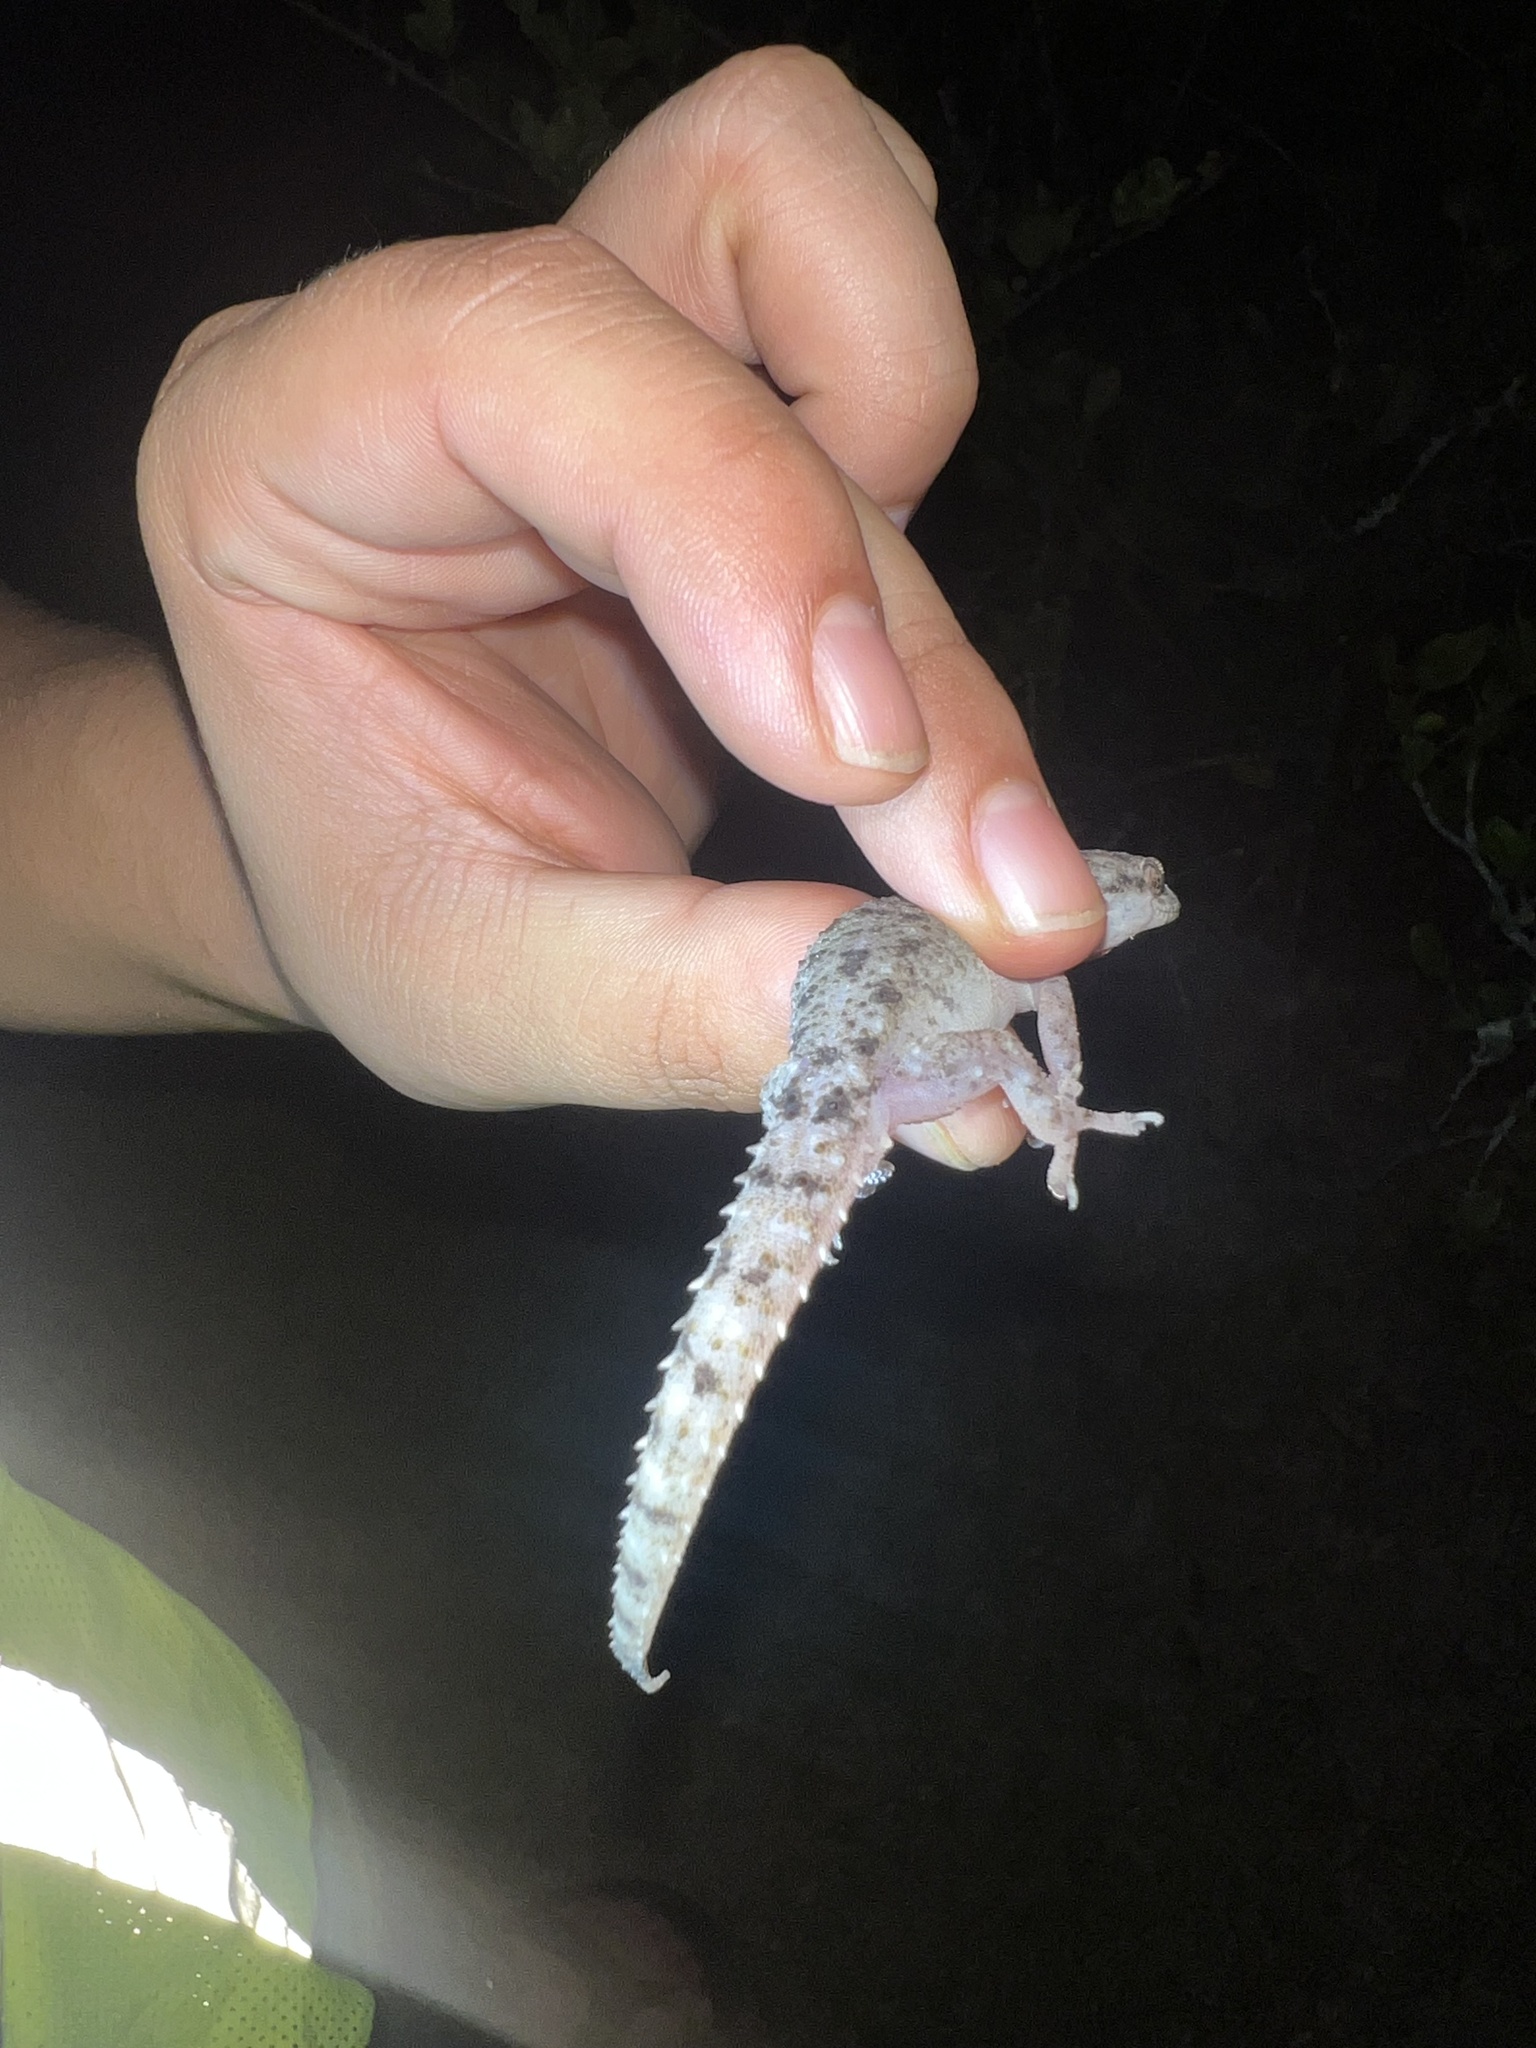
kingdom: Animalia
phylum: Chordata
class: Squamata
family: Gekkonidae
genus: Hemidactylus
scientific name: Hemidactylus parvimaculatus
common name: Spotted house gecko
